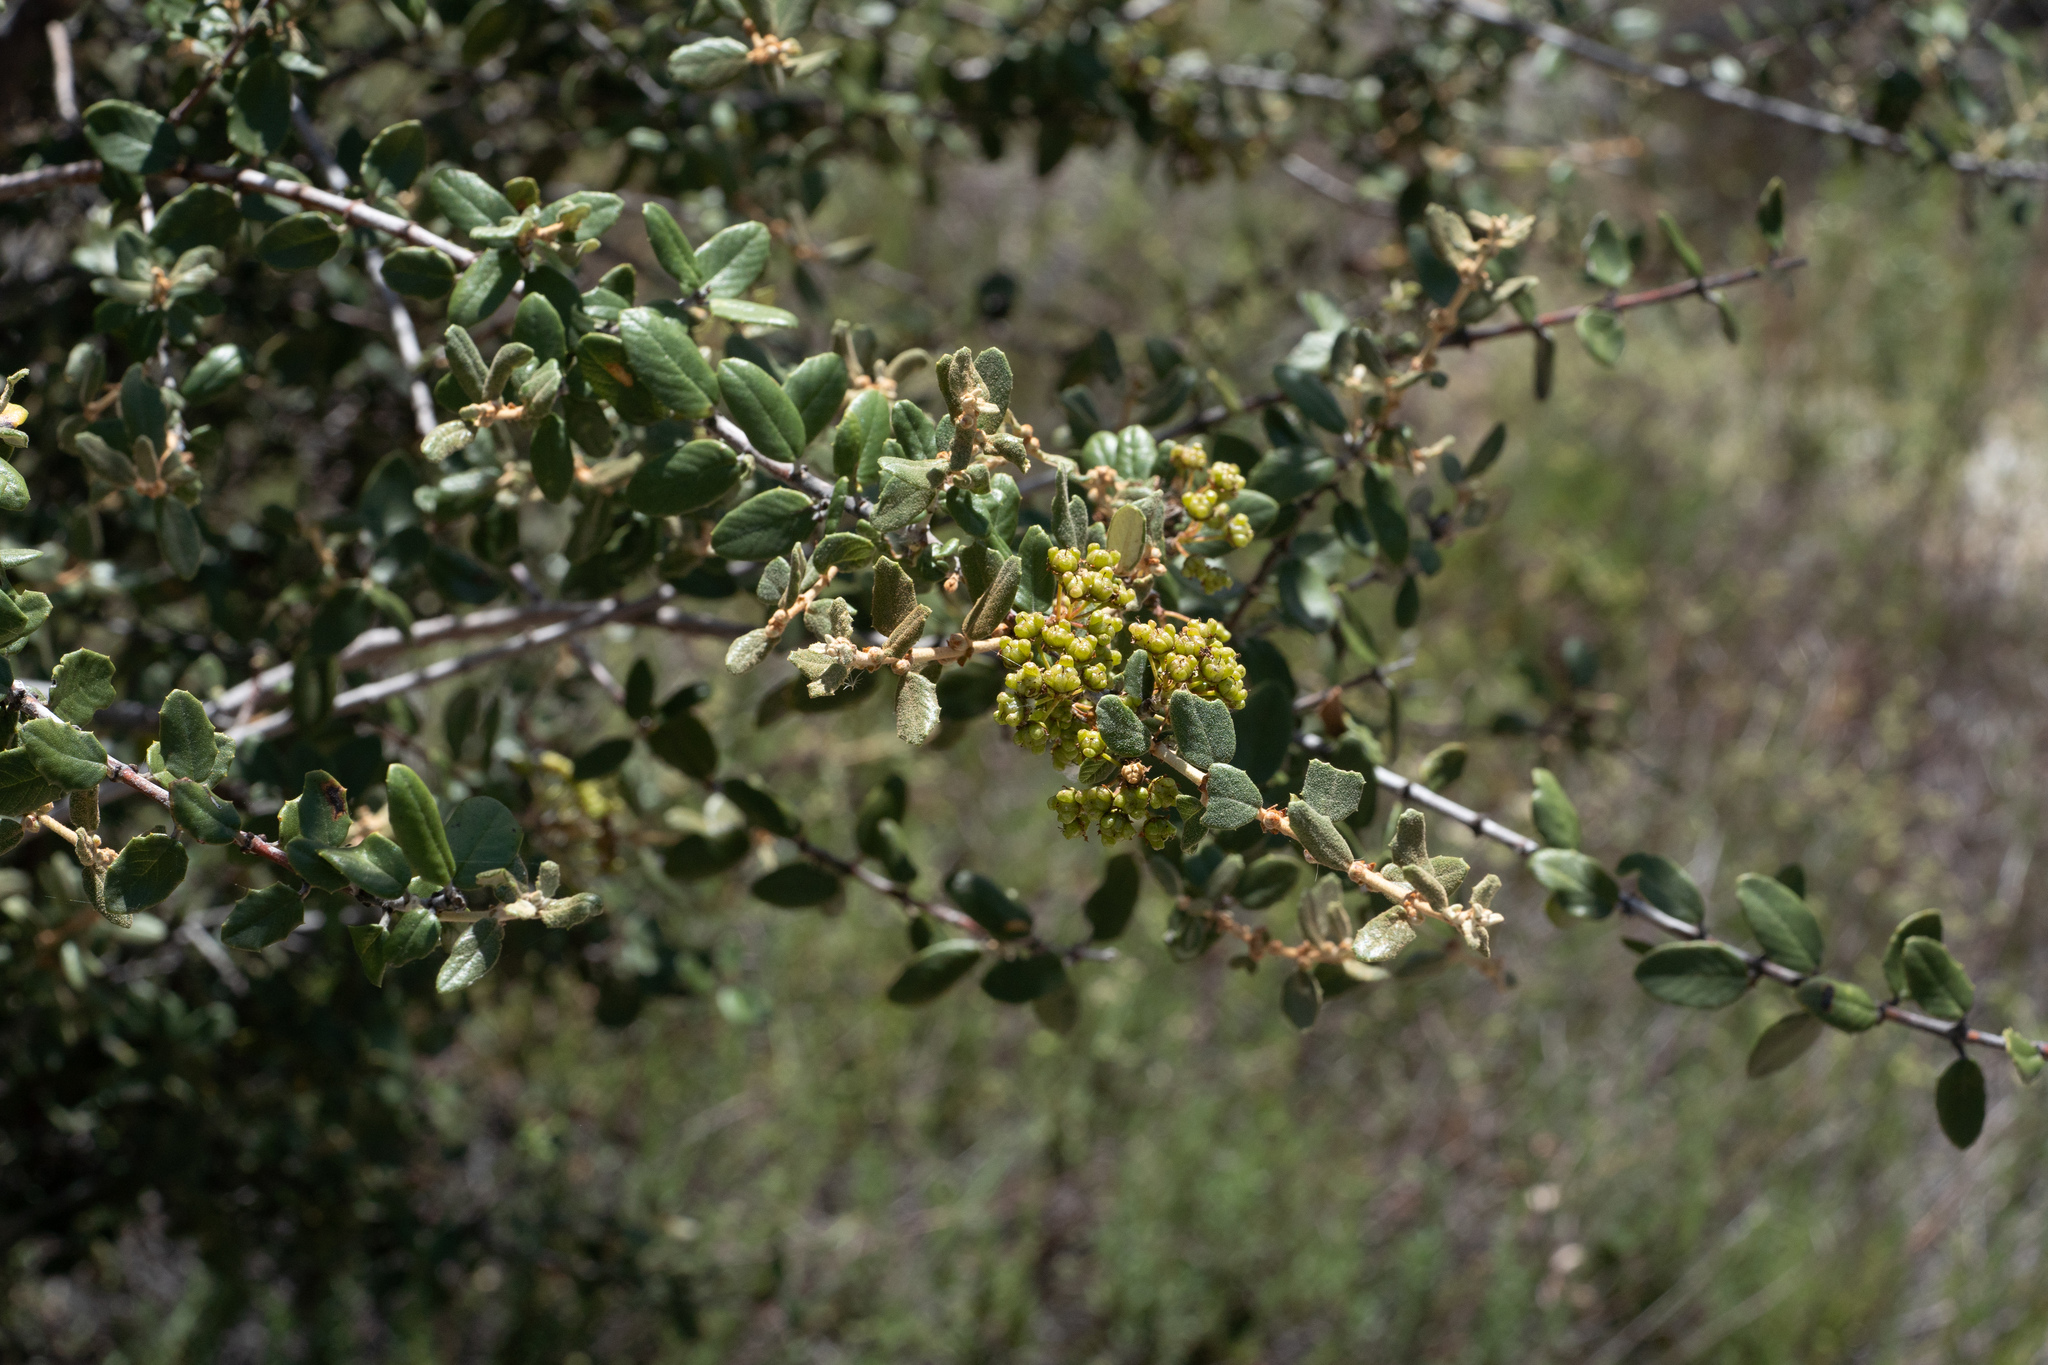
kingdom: Plantae
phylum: Tracheophyta
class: Magnoliopsida
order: Rosales
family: Rhamnaceae
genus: Ceanothus
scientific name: Ceanothus crassifolius
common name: Hoaryleaf ceanothus
